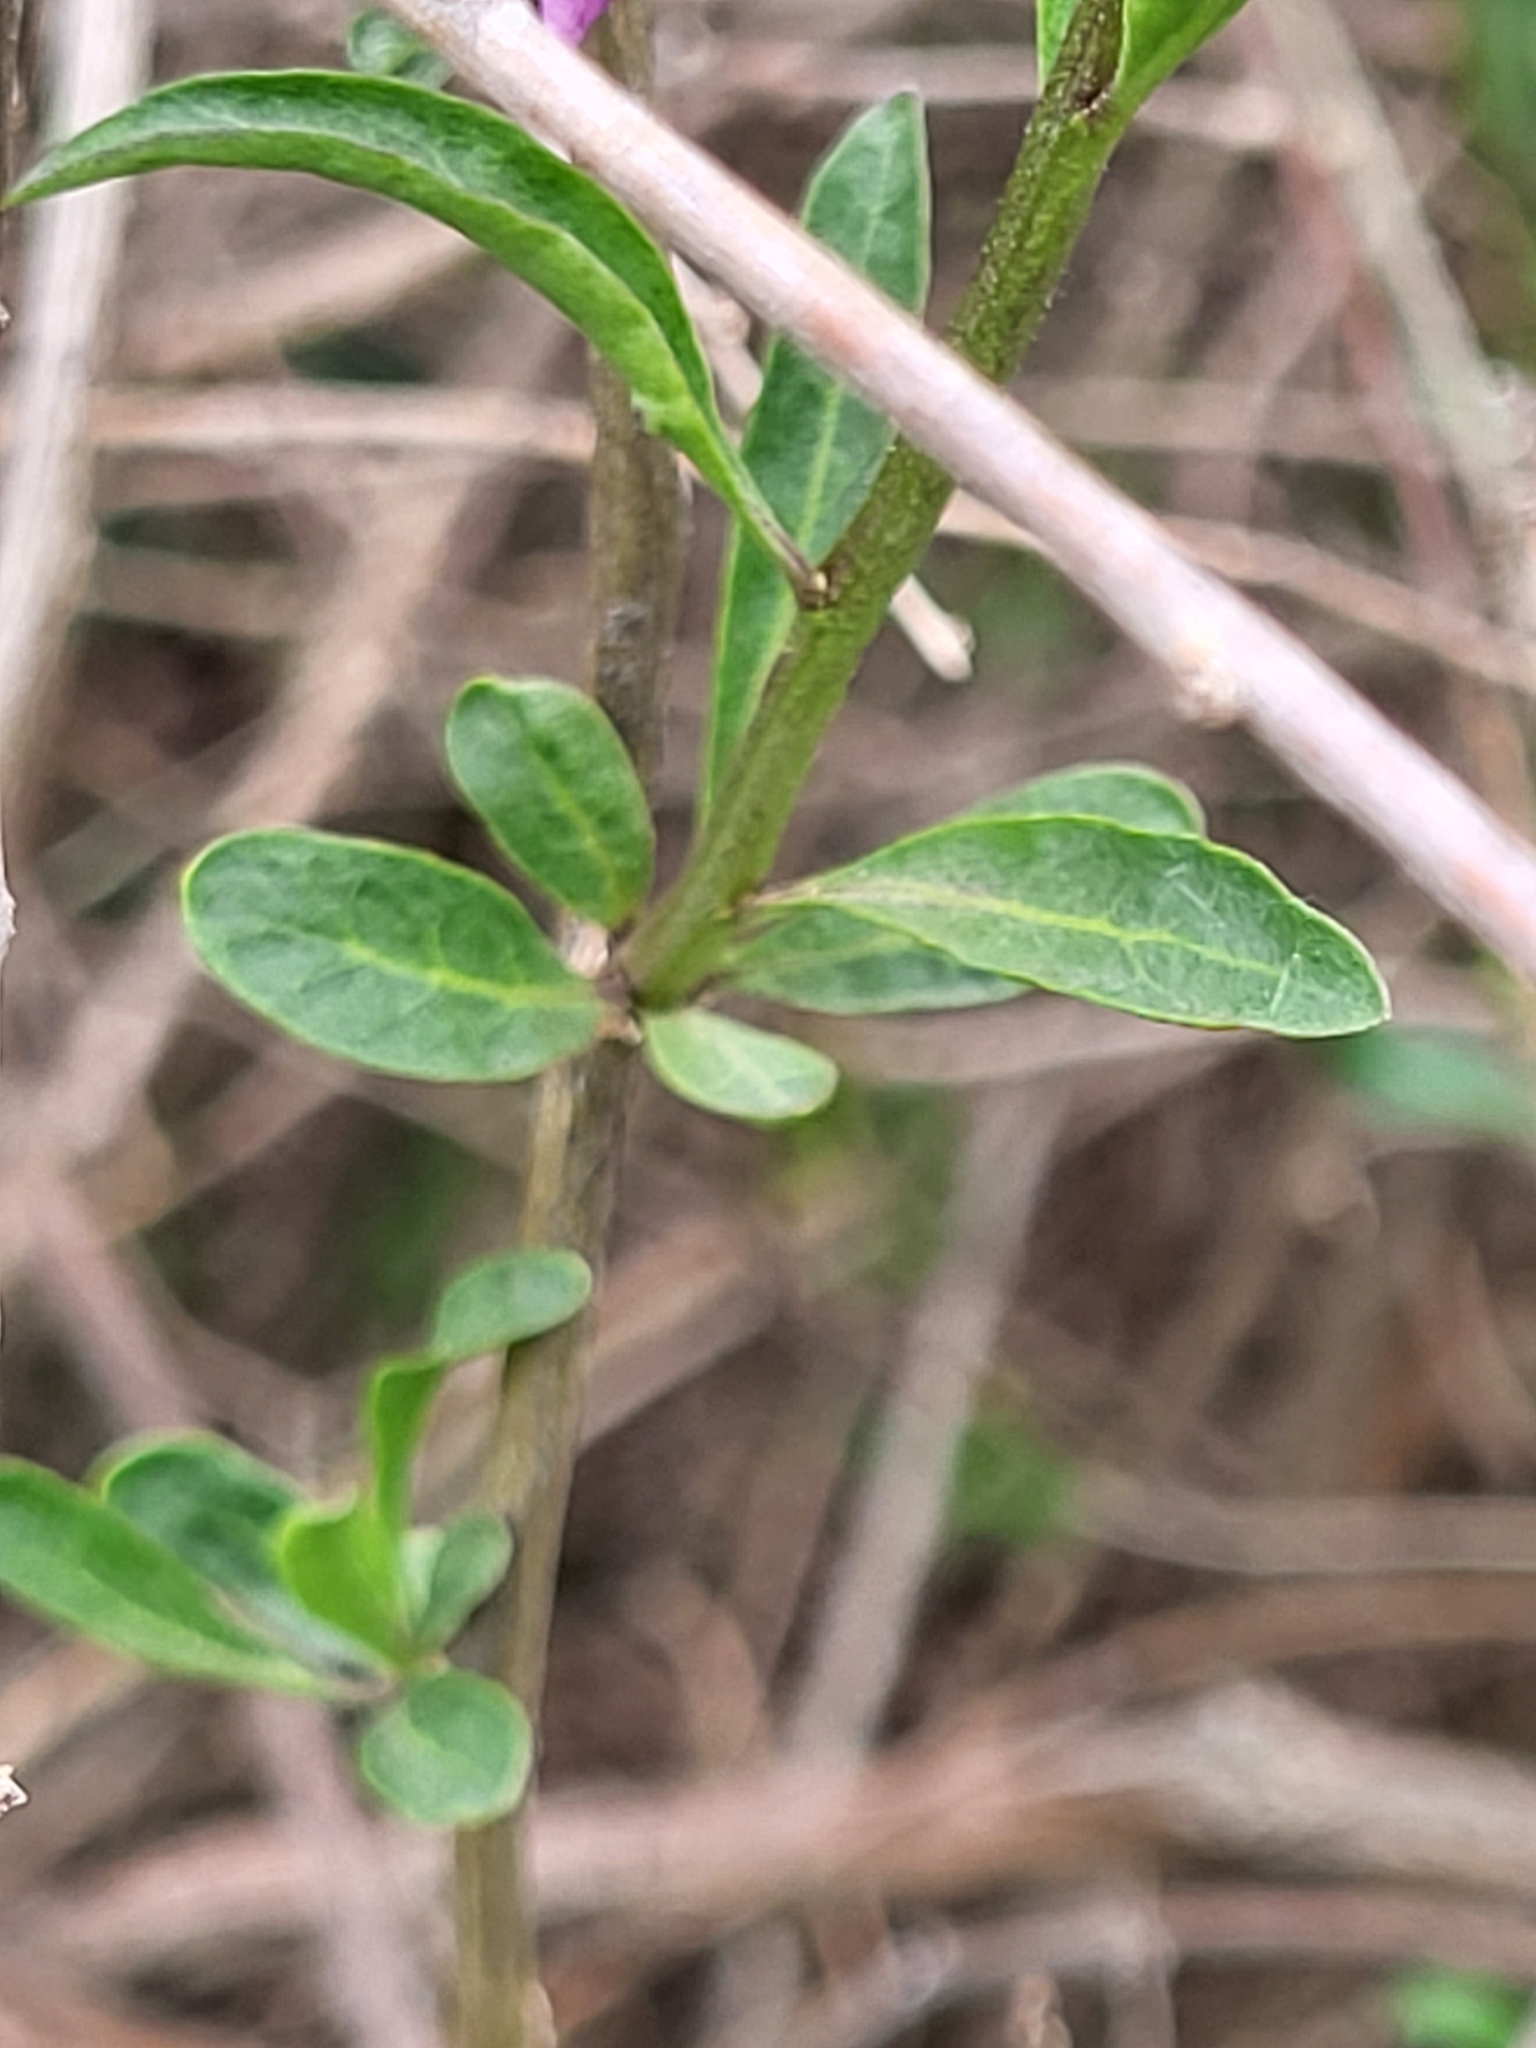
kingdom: Plantae
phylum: Tracheophyta
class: Magnoliopsida
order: Solanales
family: Solanaceae
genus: Lycium
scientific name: Lycium barbarum
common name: Duke of argyll's teaplant
